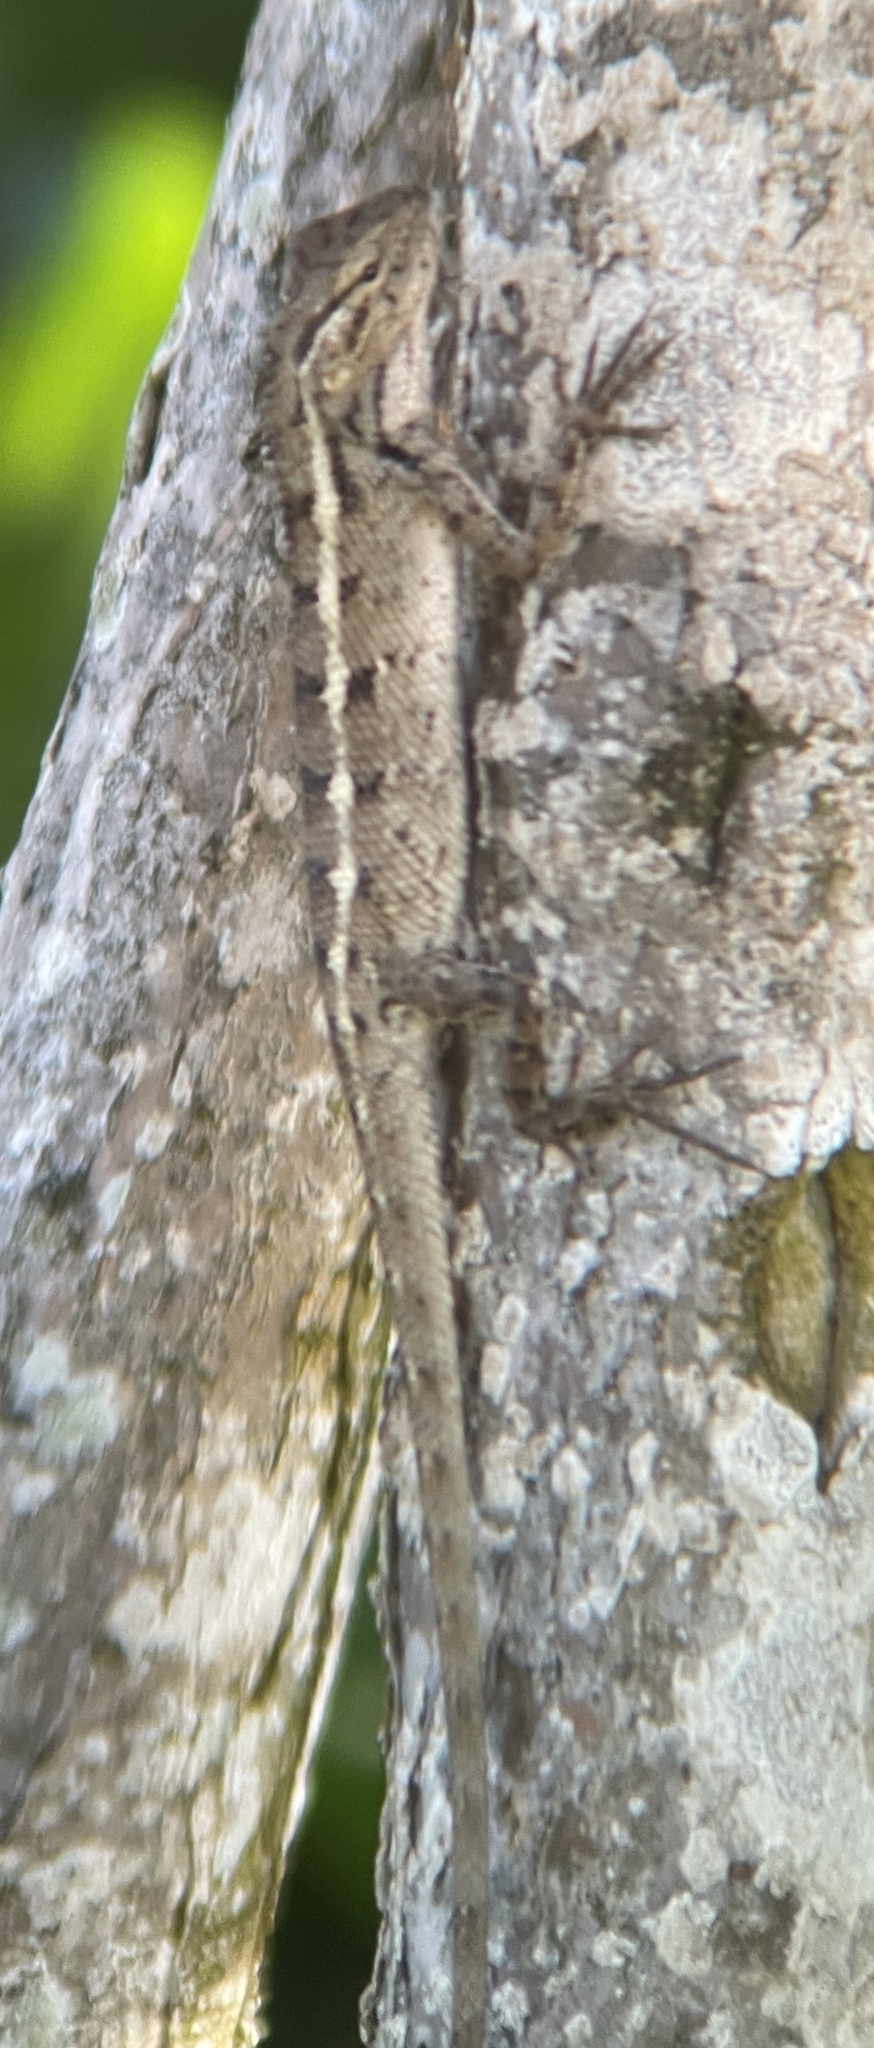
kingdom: Animalia
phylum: Chordata
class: Squamata
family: Agamidae
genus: Calotes
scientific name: Calotes versicolor
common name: Oriental garden lizard
